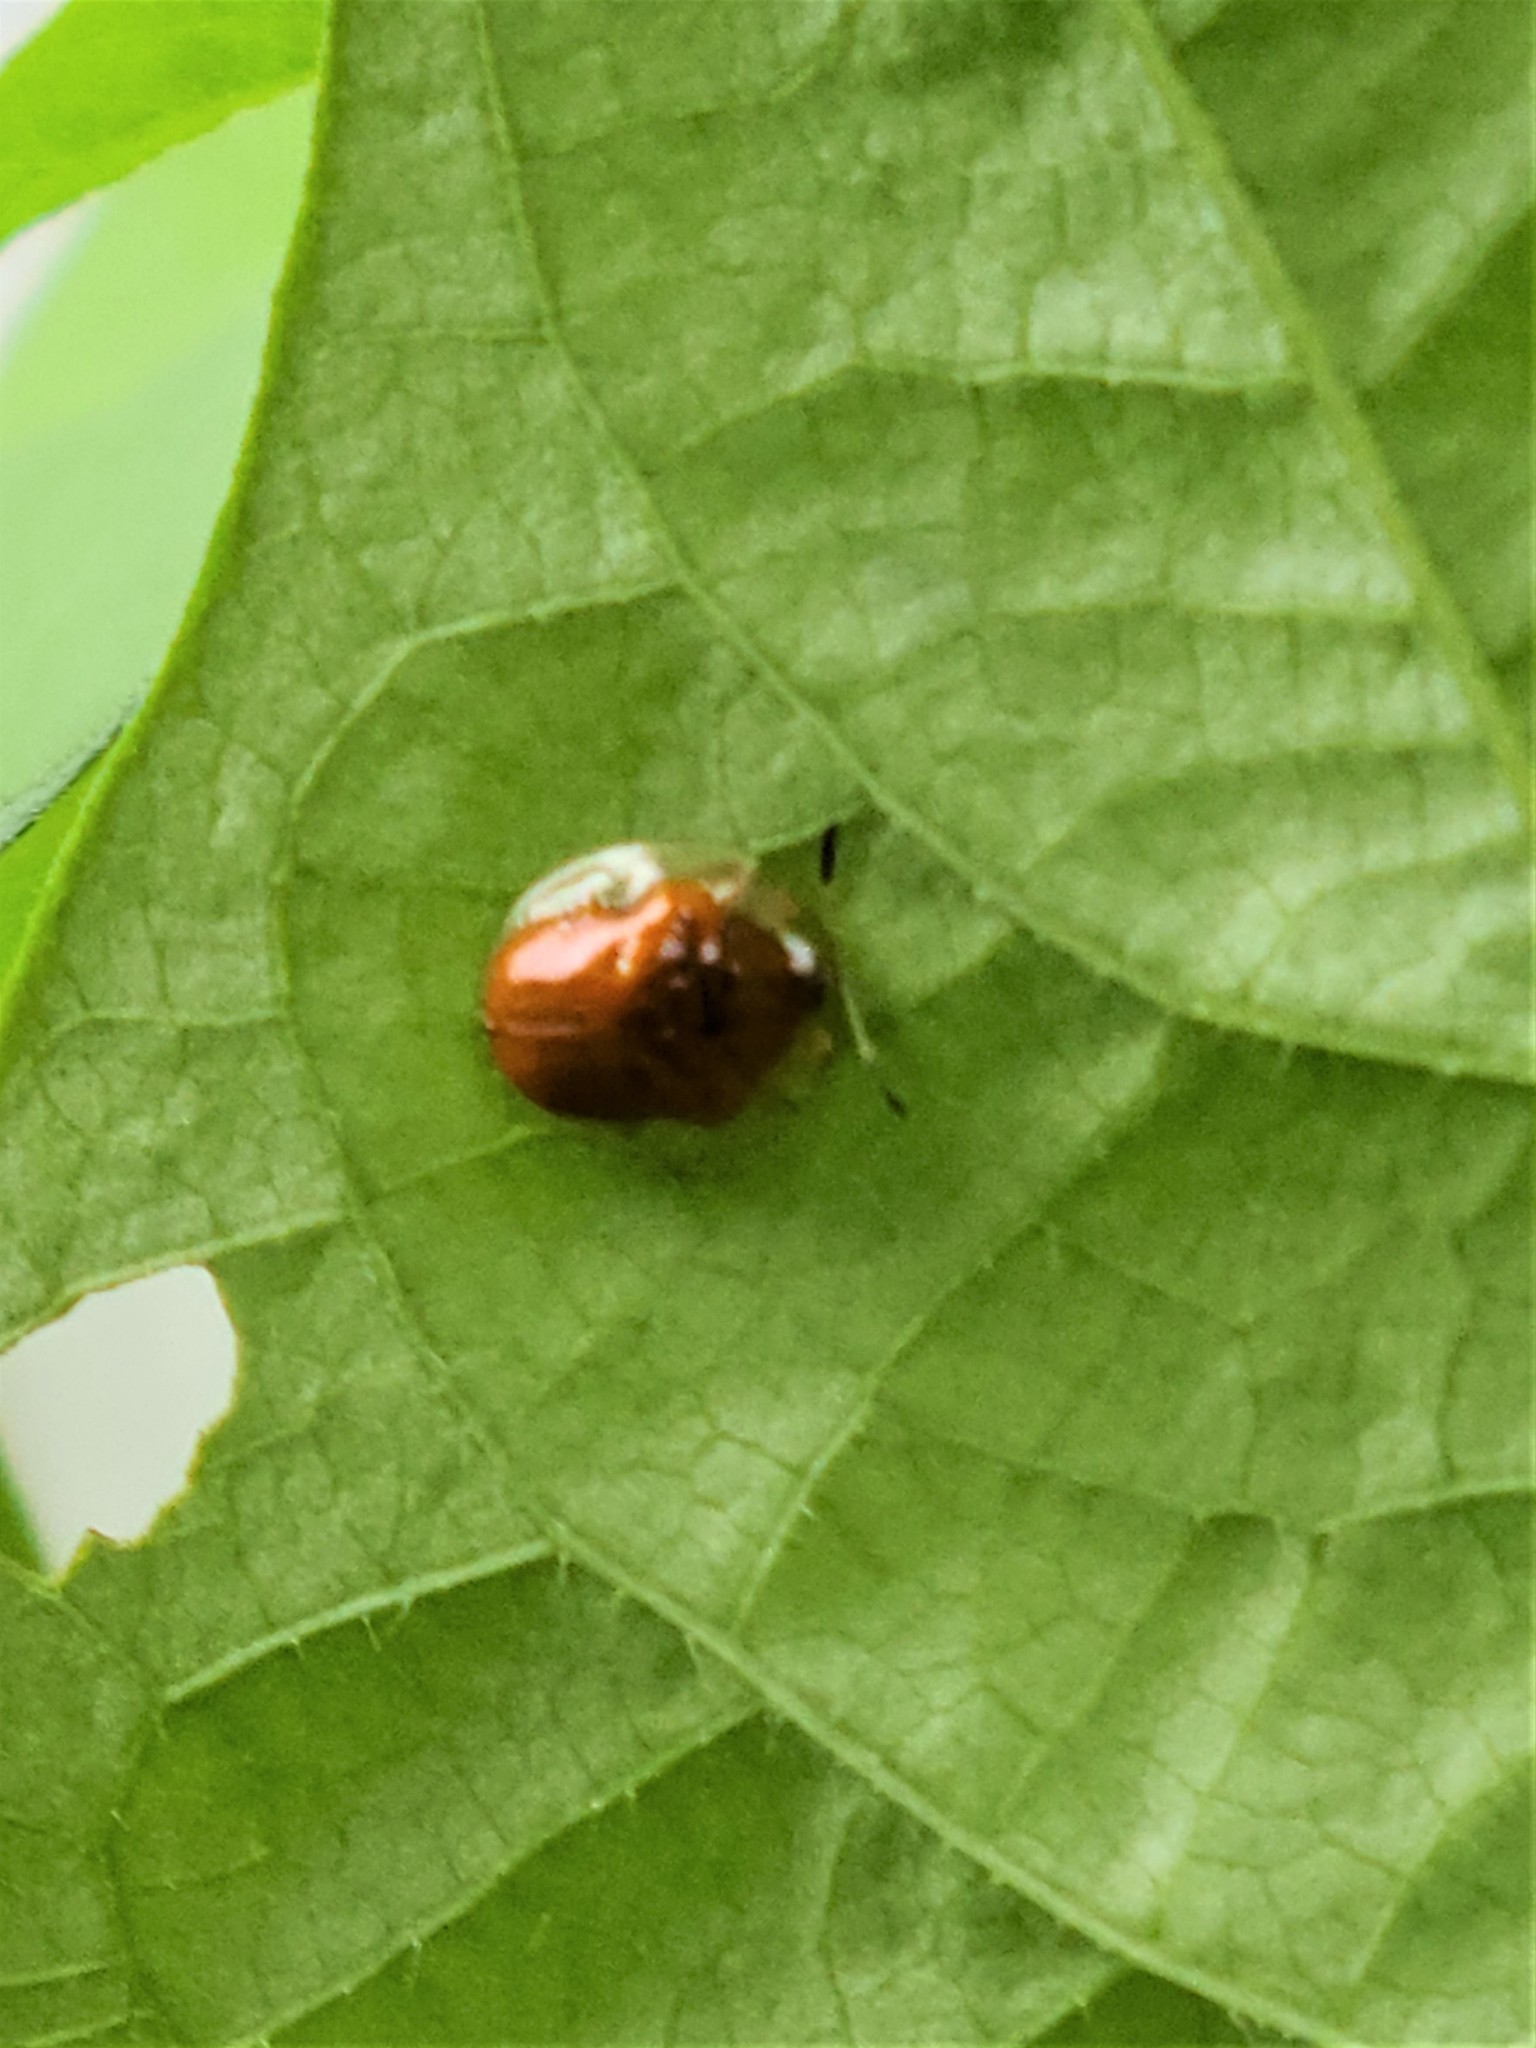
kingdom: Animalia
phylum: Arthropoda
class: Insecta
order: Coleoptera
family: Chrysomelidae
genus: Charidotella
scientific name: Charidotella sexpunctata
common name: Golden tortoise beetle
